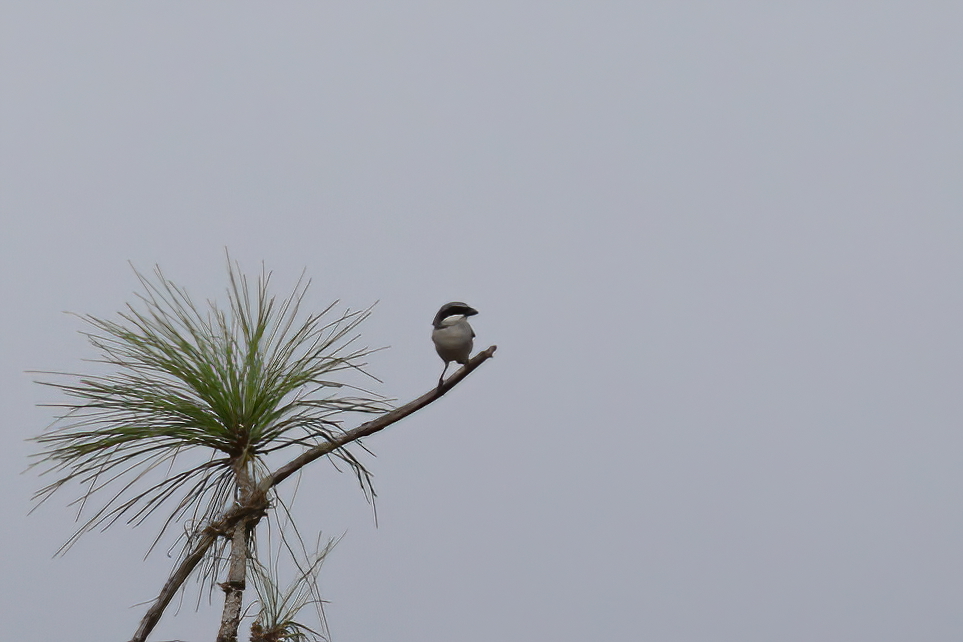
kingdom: Animalia
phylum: Chordata
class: Aves
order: Passeriformes
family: Laniidae
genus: Lanius
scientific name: Lanius ludovicianus
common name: Loggerhead shrike
